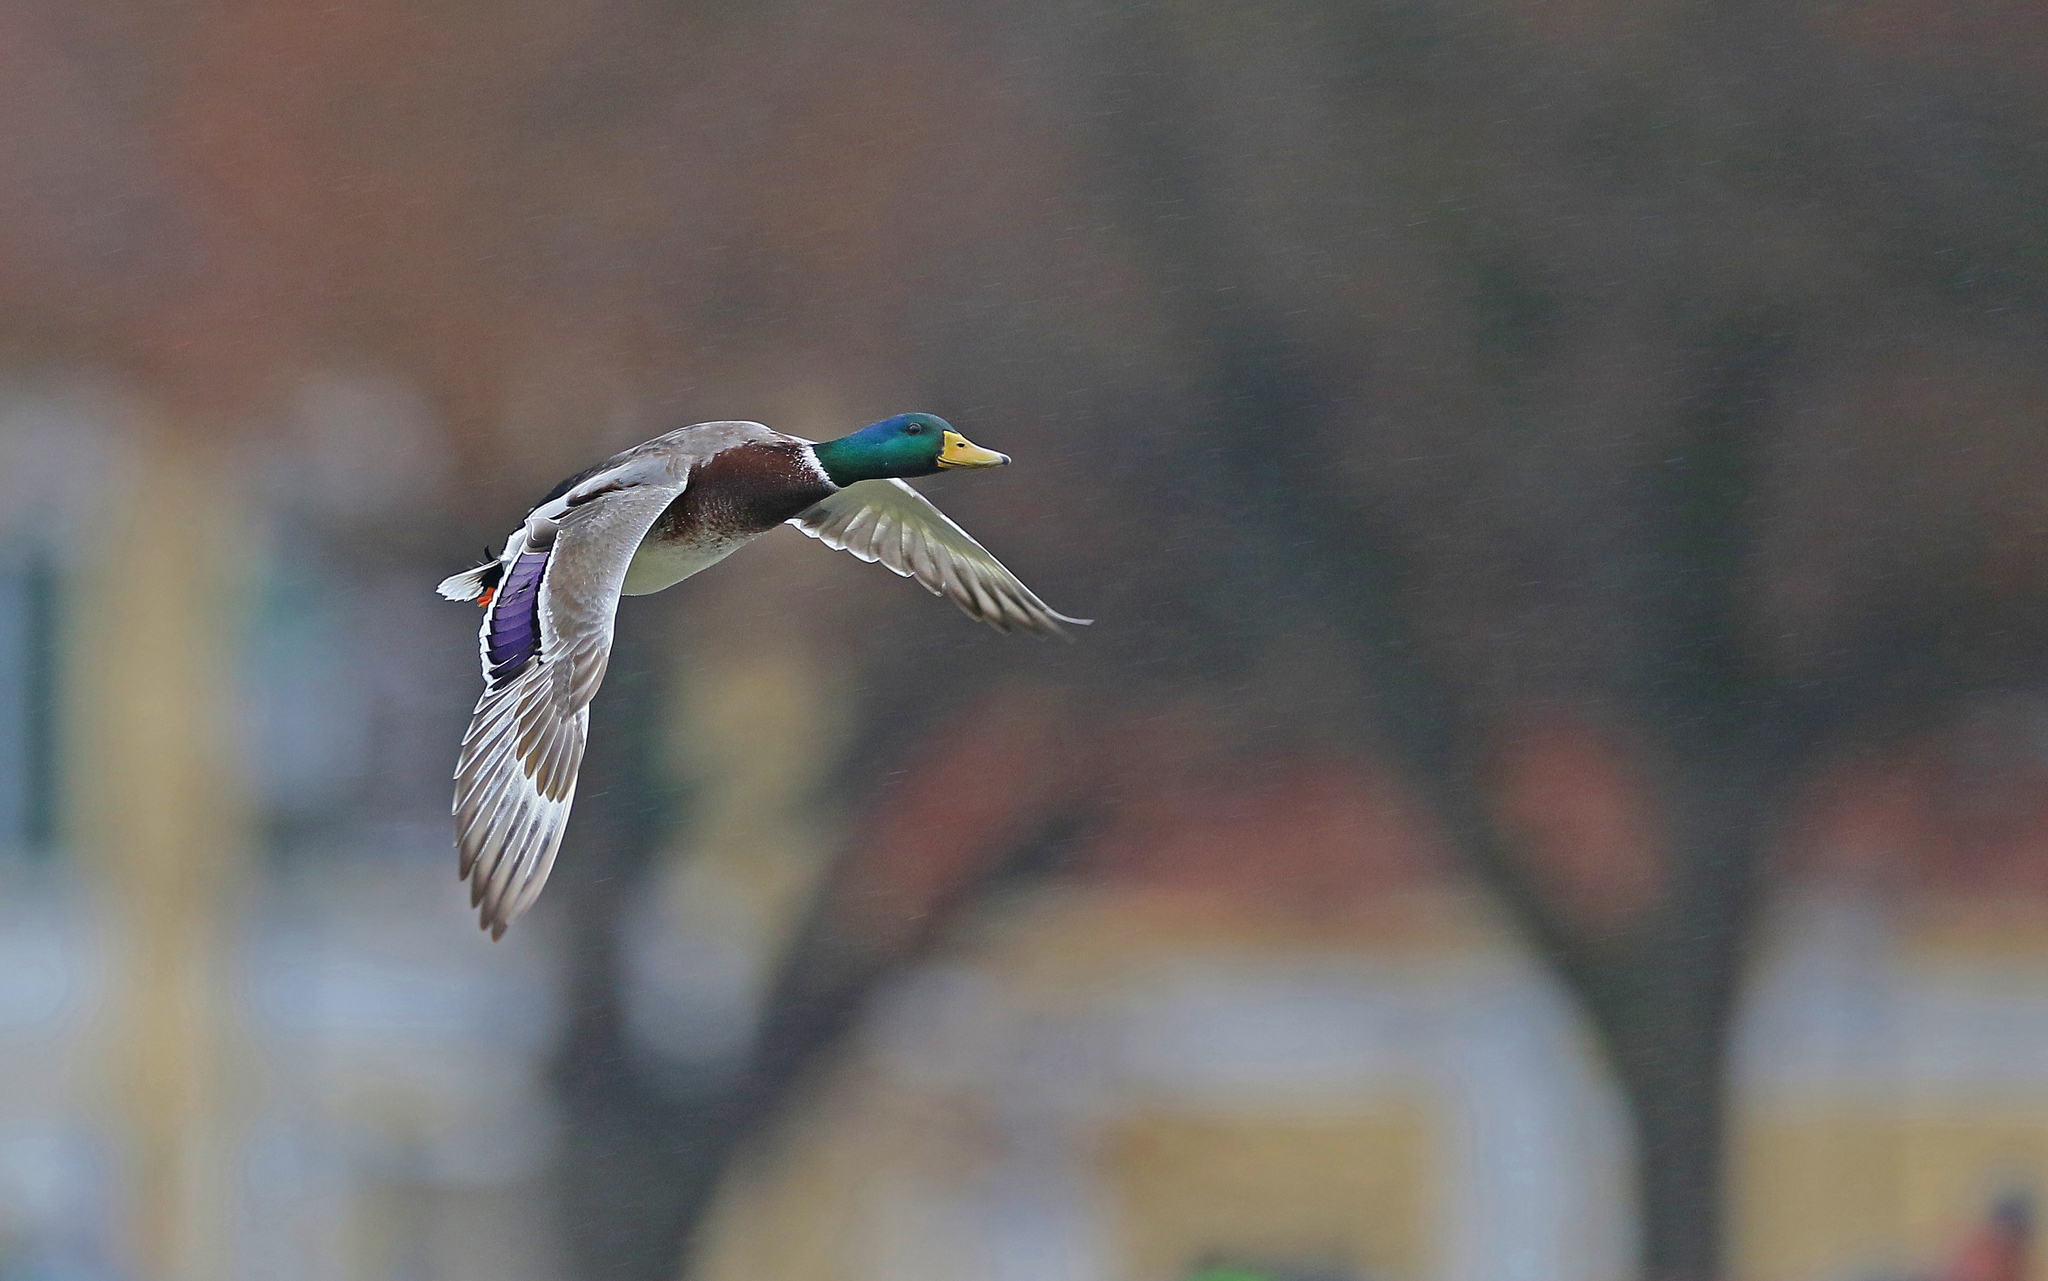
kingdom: Animalia
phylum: Chordata
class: Aves
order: Anseriformes
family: Anatidae
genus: Anas
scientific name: Anas platyrhynchos
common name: Mallard
